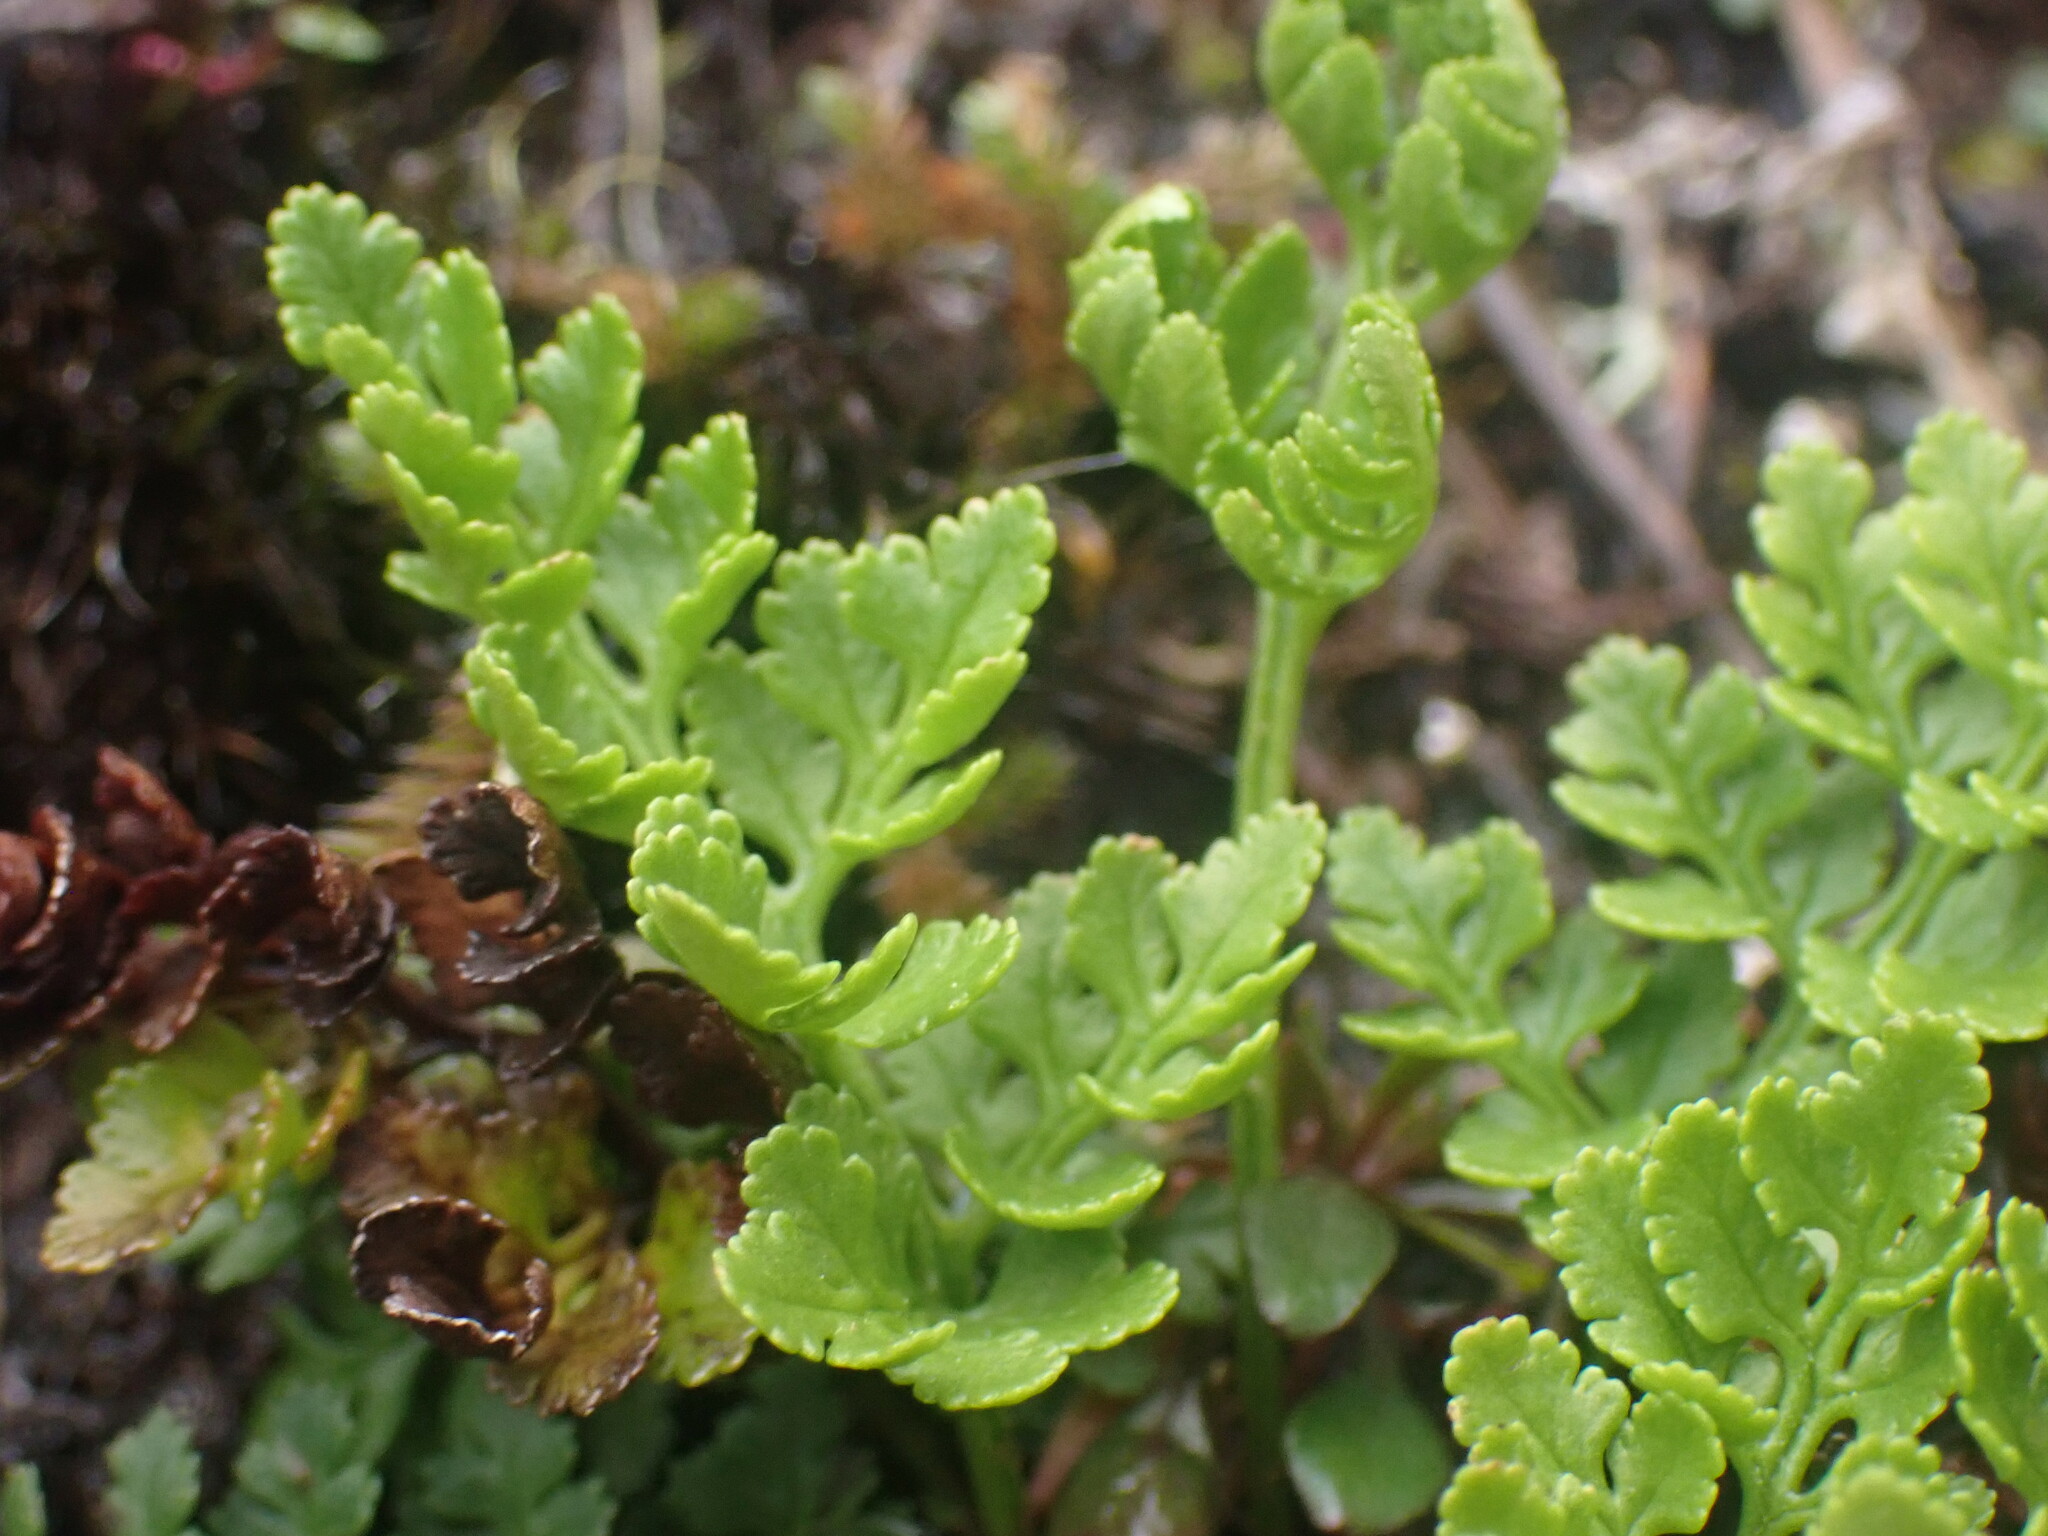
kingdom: Plantae
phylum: Tracheophyta
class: Polypodiopsida
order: Polypodiales
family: Pteridaceae
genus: Cryptogramma
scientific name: Cryptogramma acrostichoides
